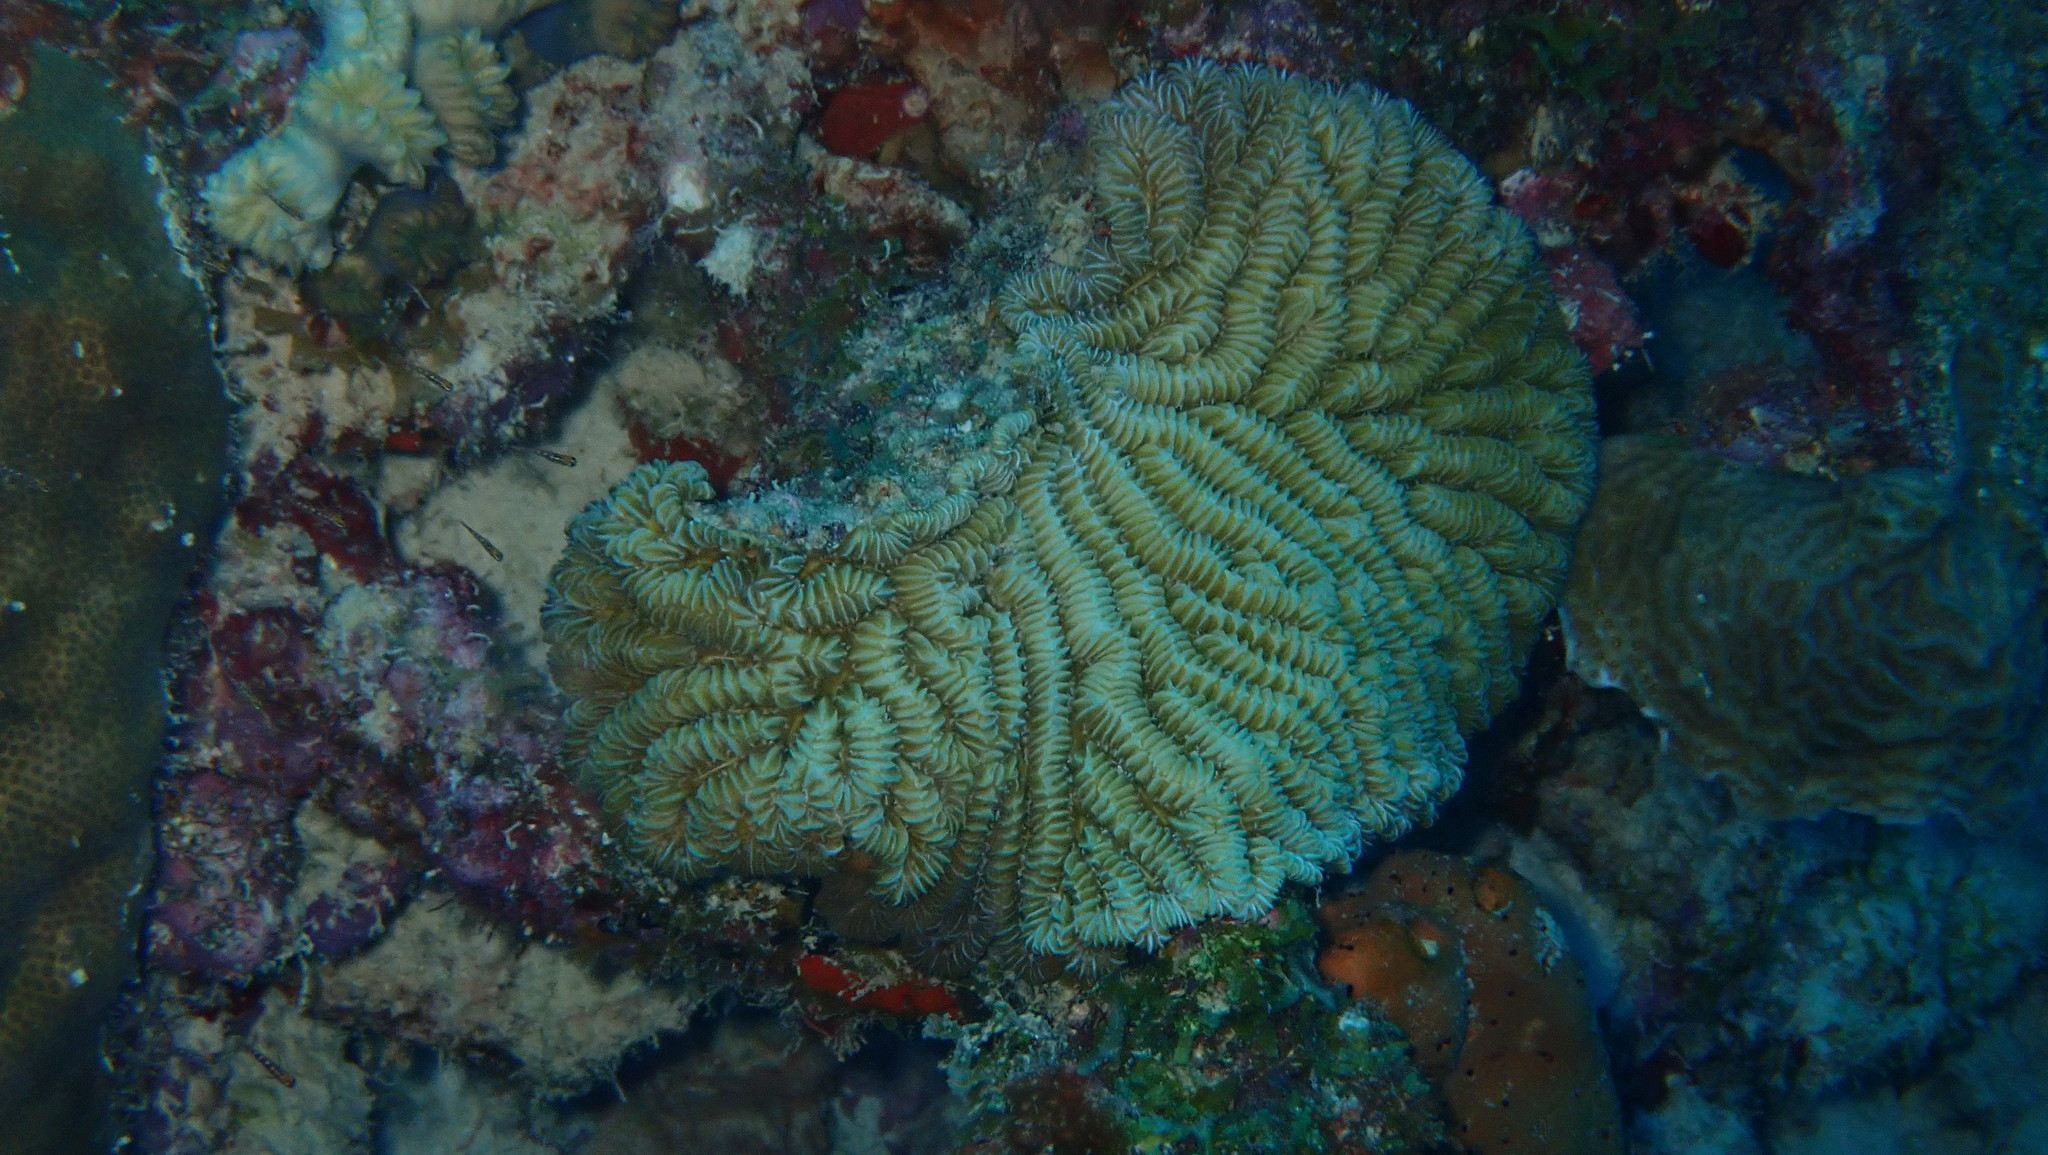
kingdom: Animalia
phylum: Cnidaria
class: Anthozoa
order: Scleractinia
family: Meandrinidae
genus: Meandrina
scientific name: Meandrina meandrites
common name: Maze coral
